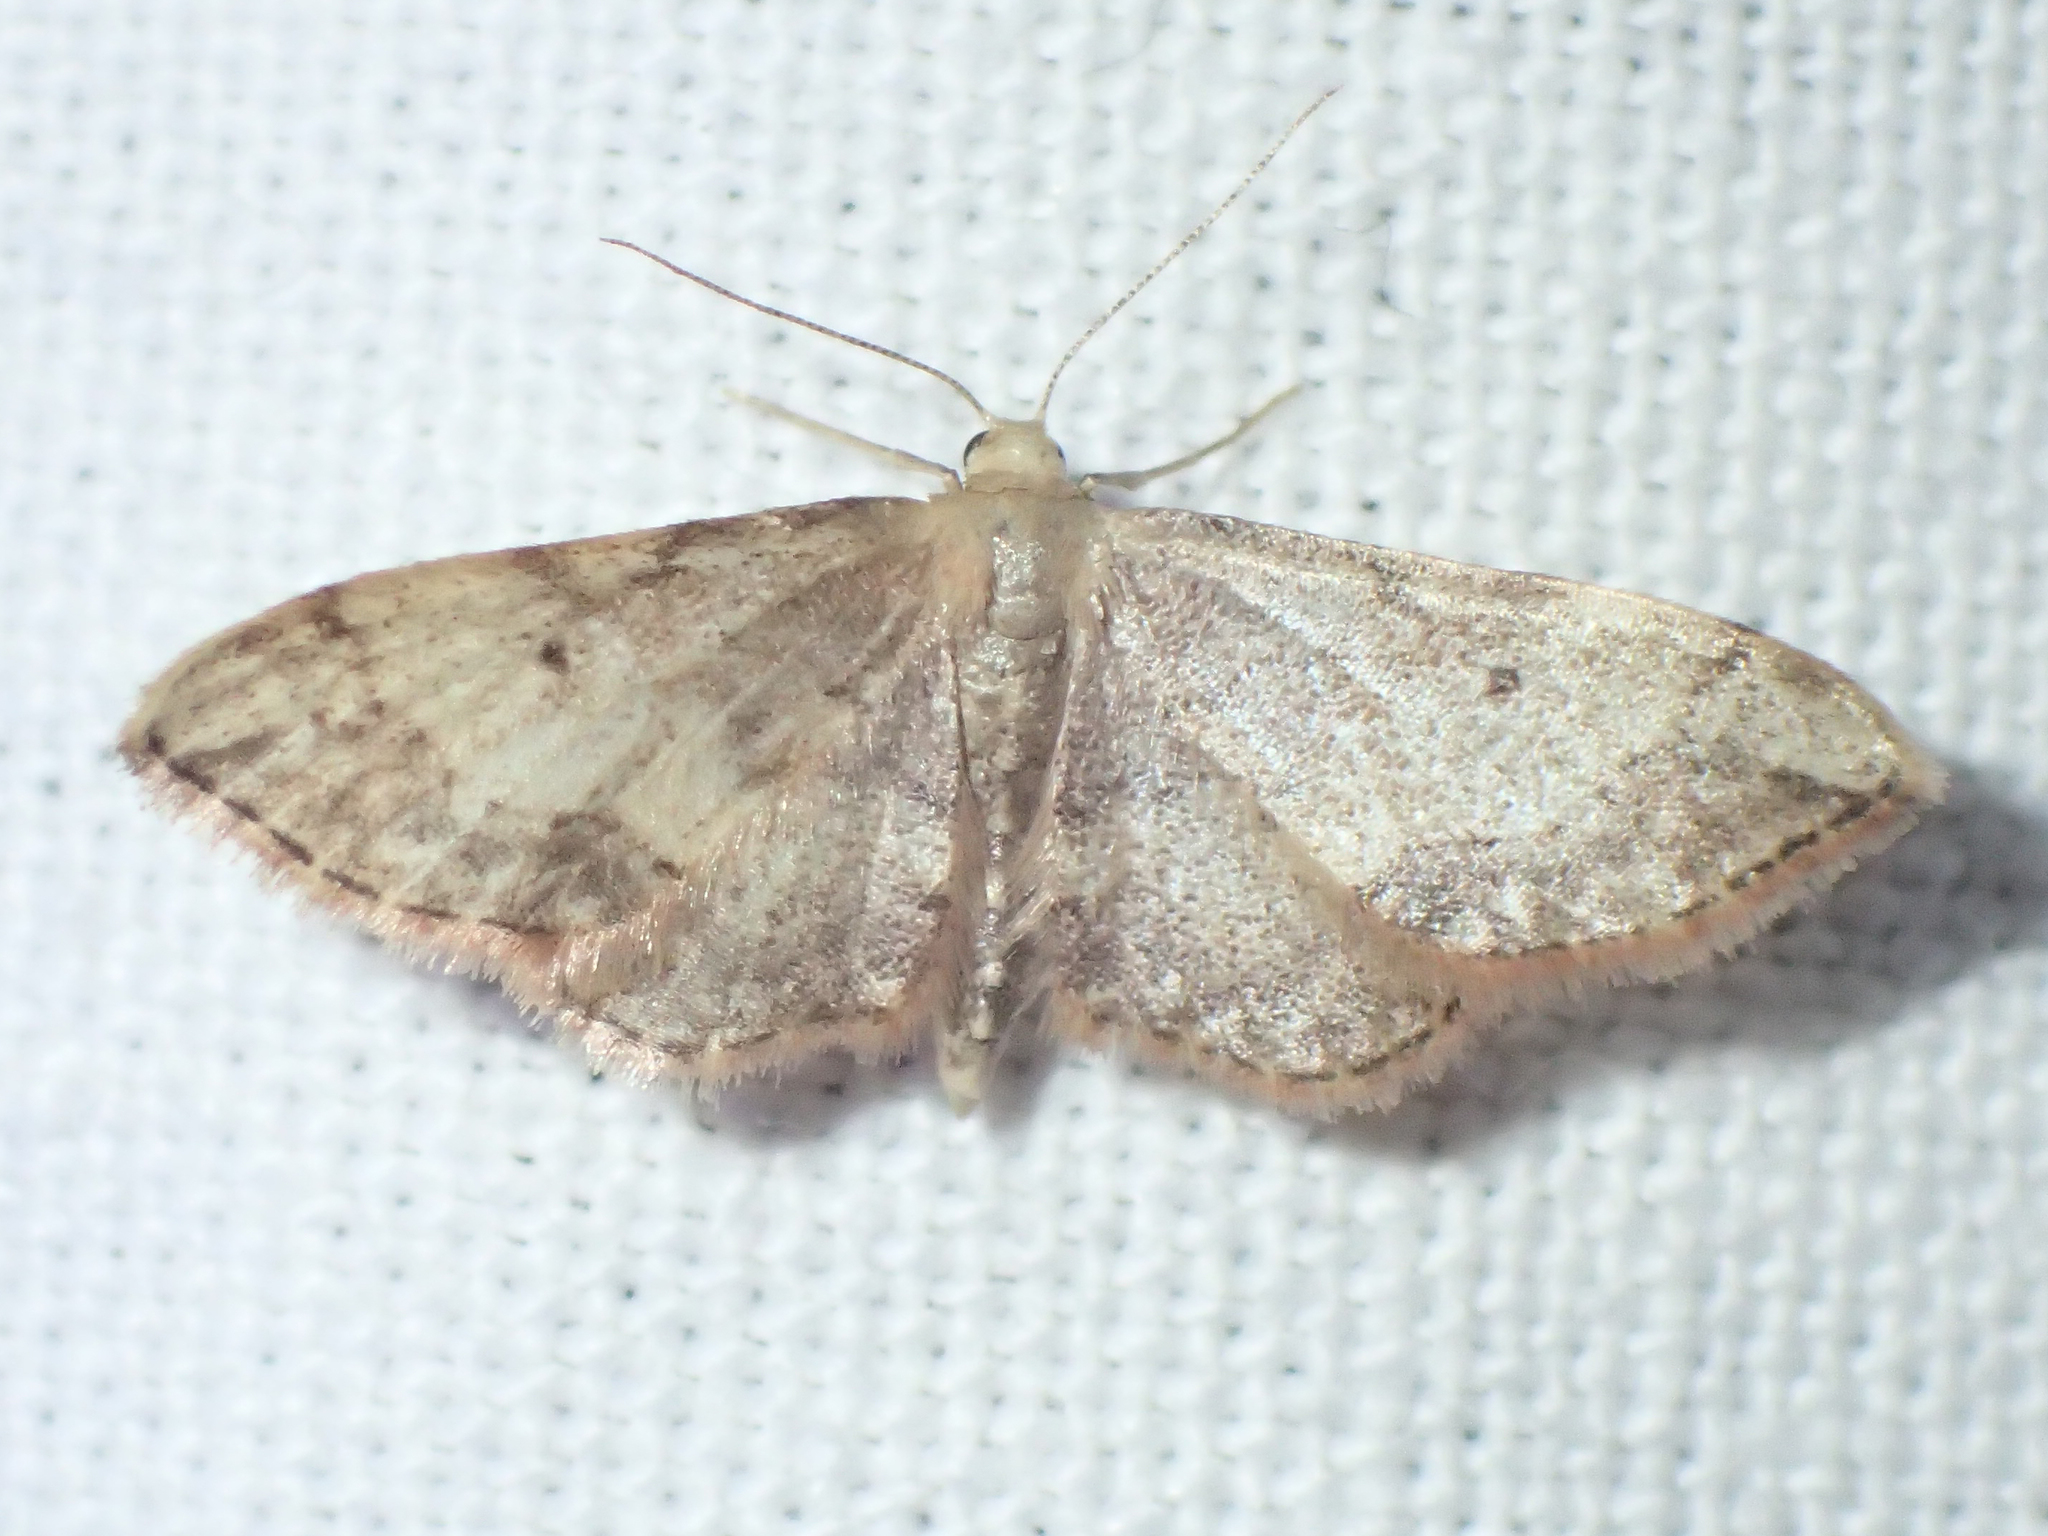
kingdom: Animalia
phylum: Arthropoda
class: Insecta
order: Lepidoptera
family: Geometridae
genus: Idaea
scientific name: Idaea efflorata
